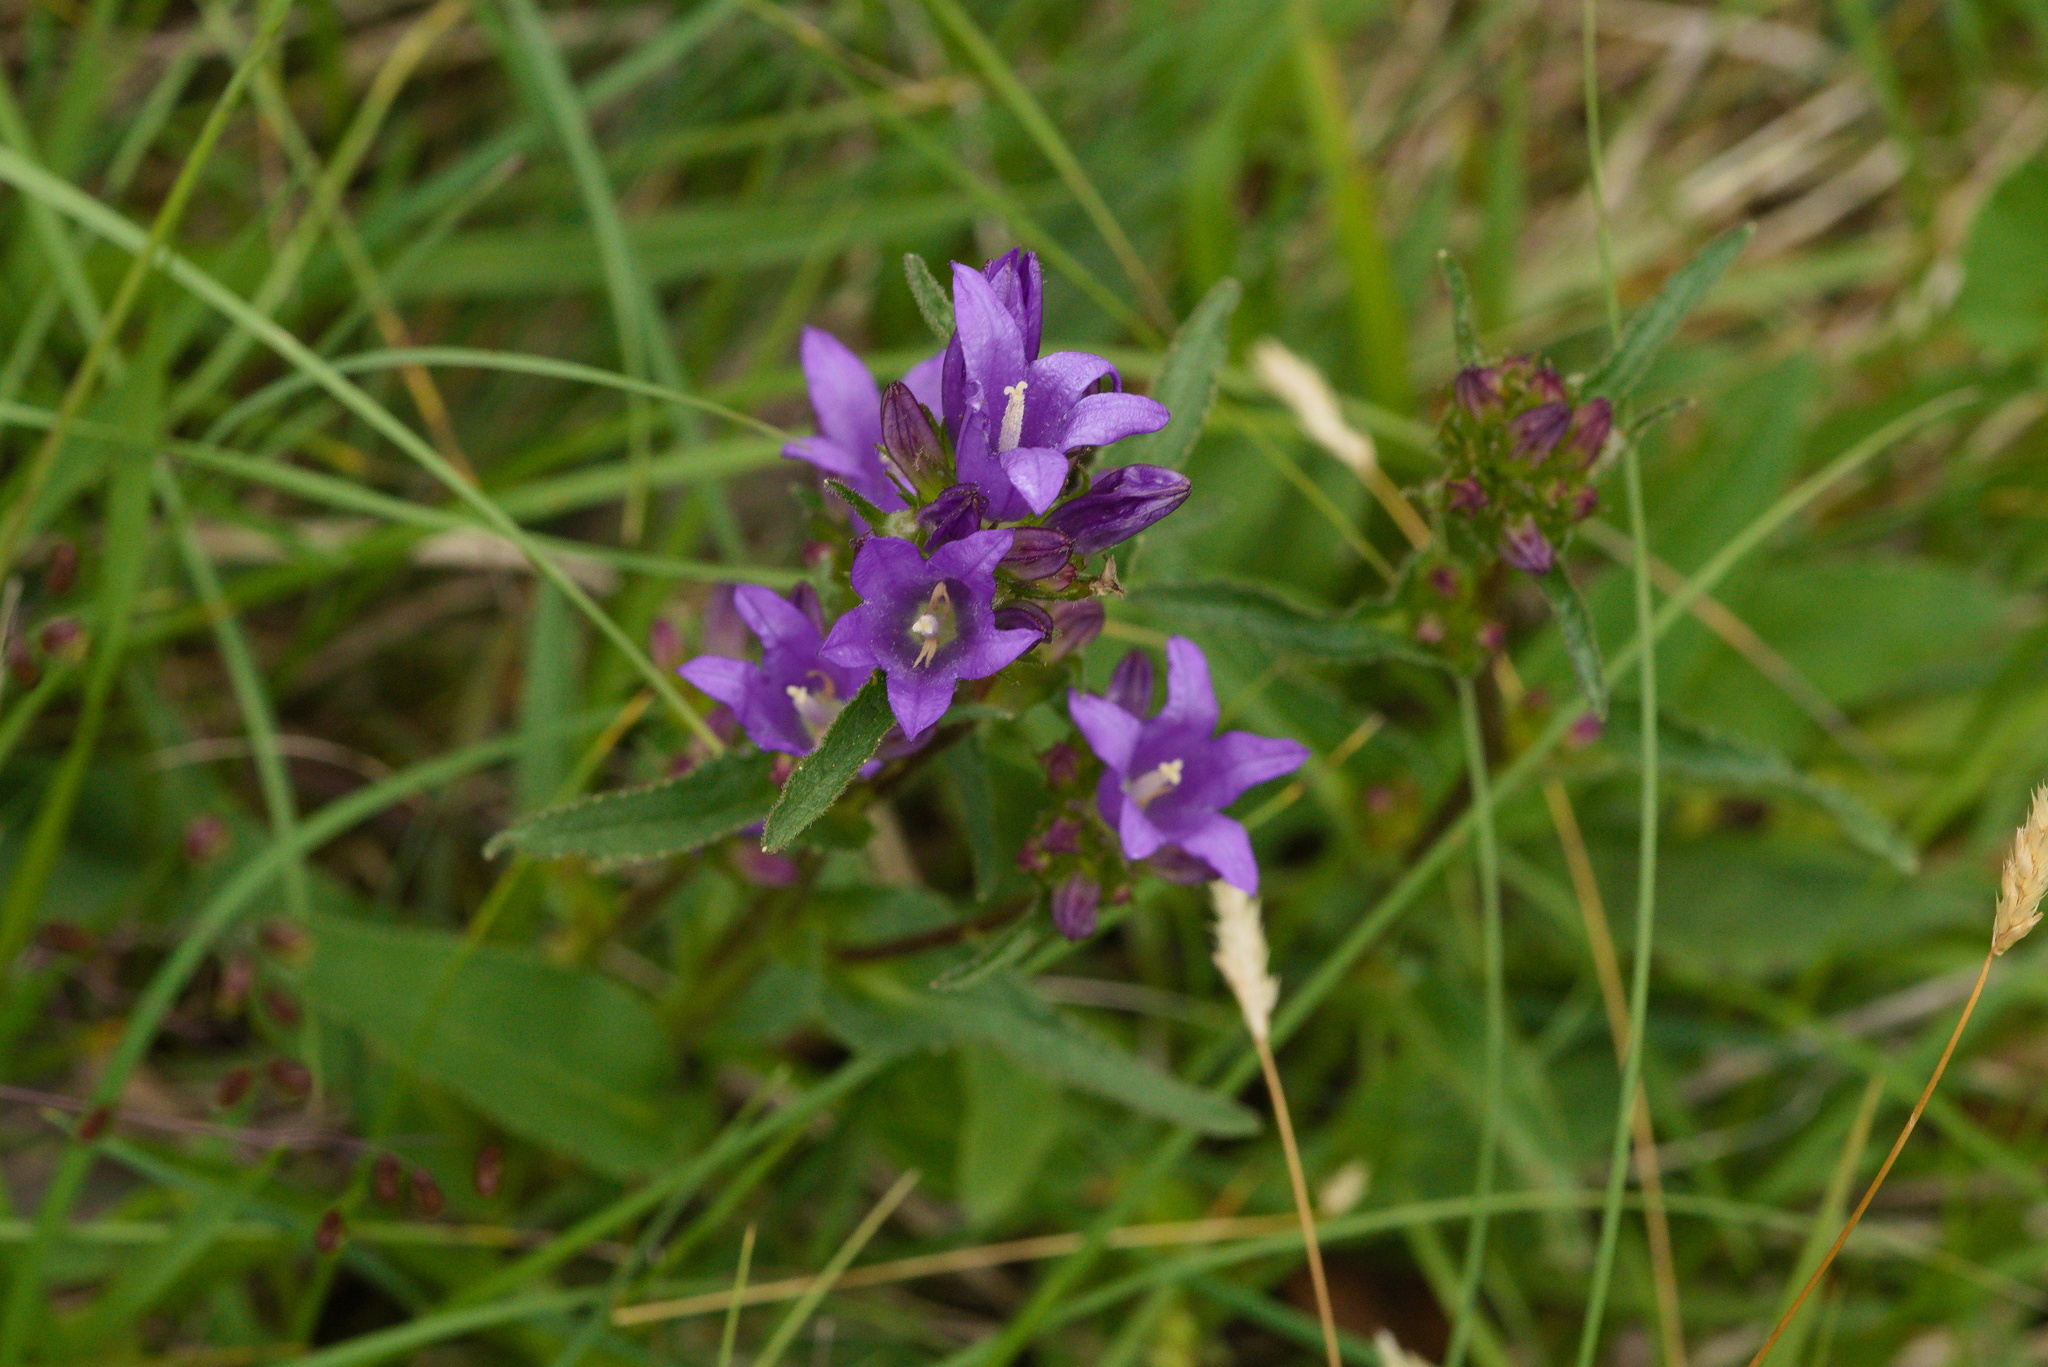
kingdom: Plantae
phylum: Tracheophyta
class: Magnoliopsida
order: Asterales
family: Campanulaceae
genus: Campanula
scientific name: Campanula glomerata
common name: Clustered bellflower
